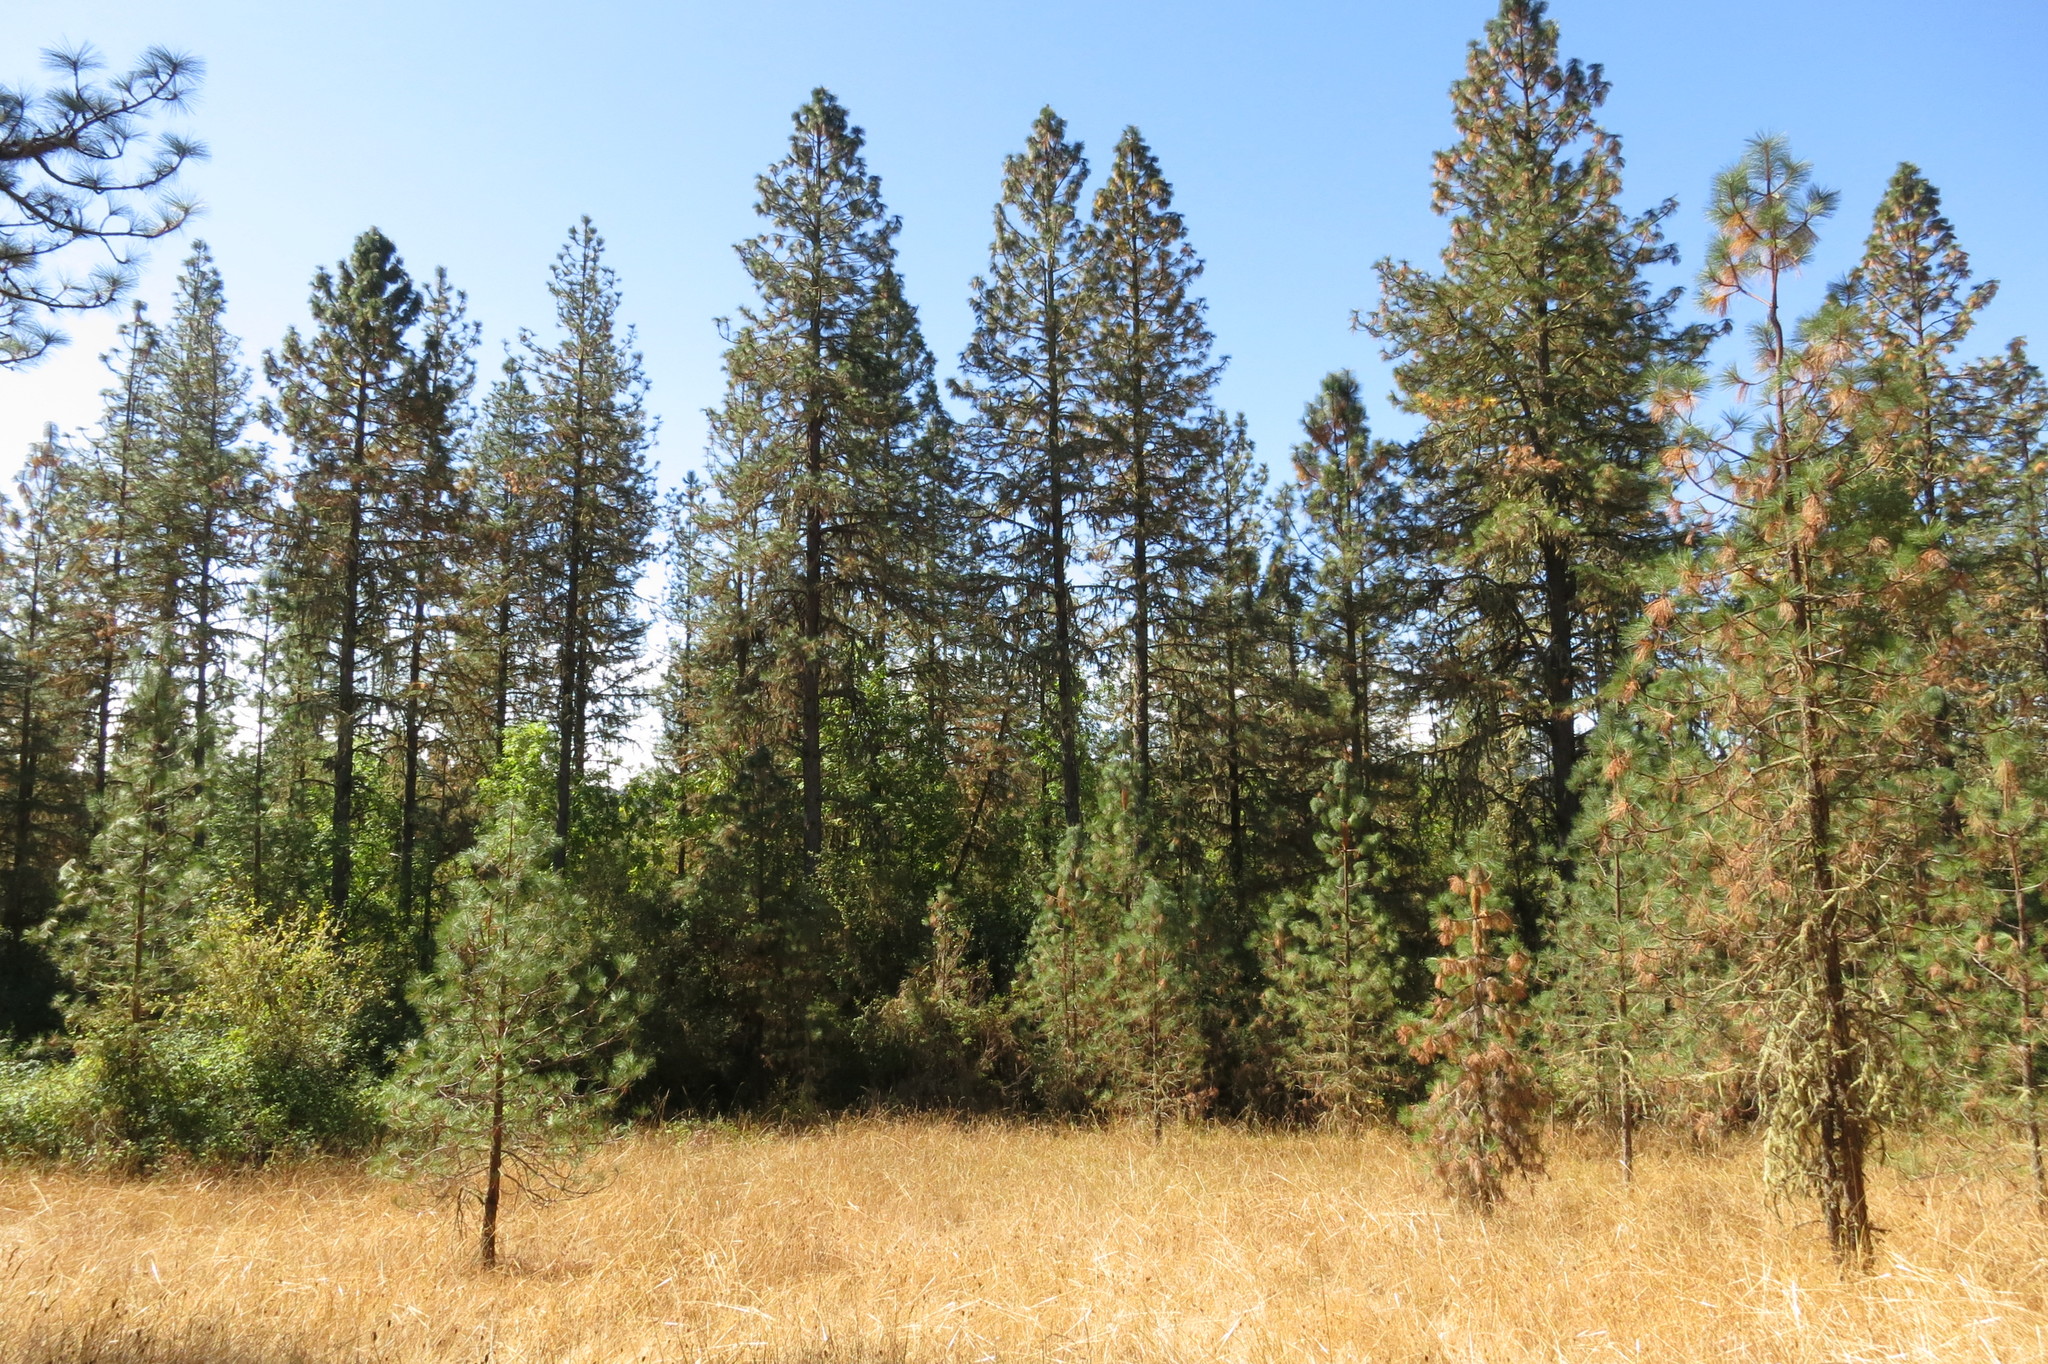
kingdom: Plantae
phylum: Tracheophyta
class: Pinopsida
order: Pinales
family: Pinaceae
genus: Pinus
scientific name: Pinus ponderosa
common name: Western yellow-pine
